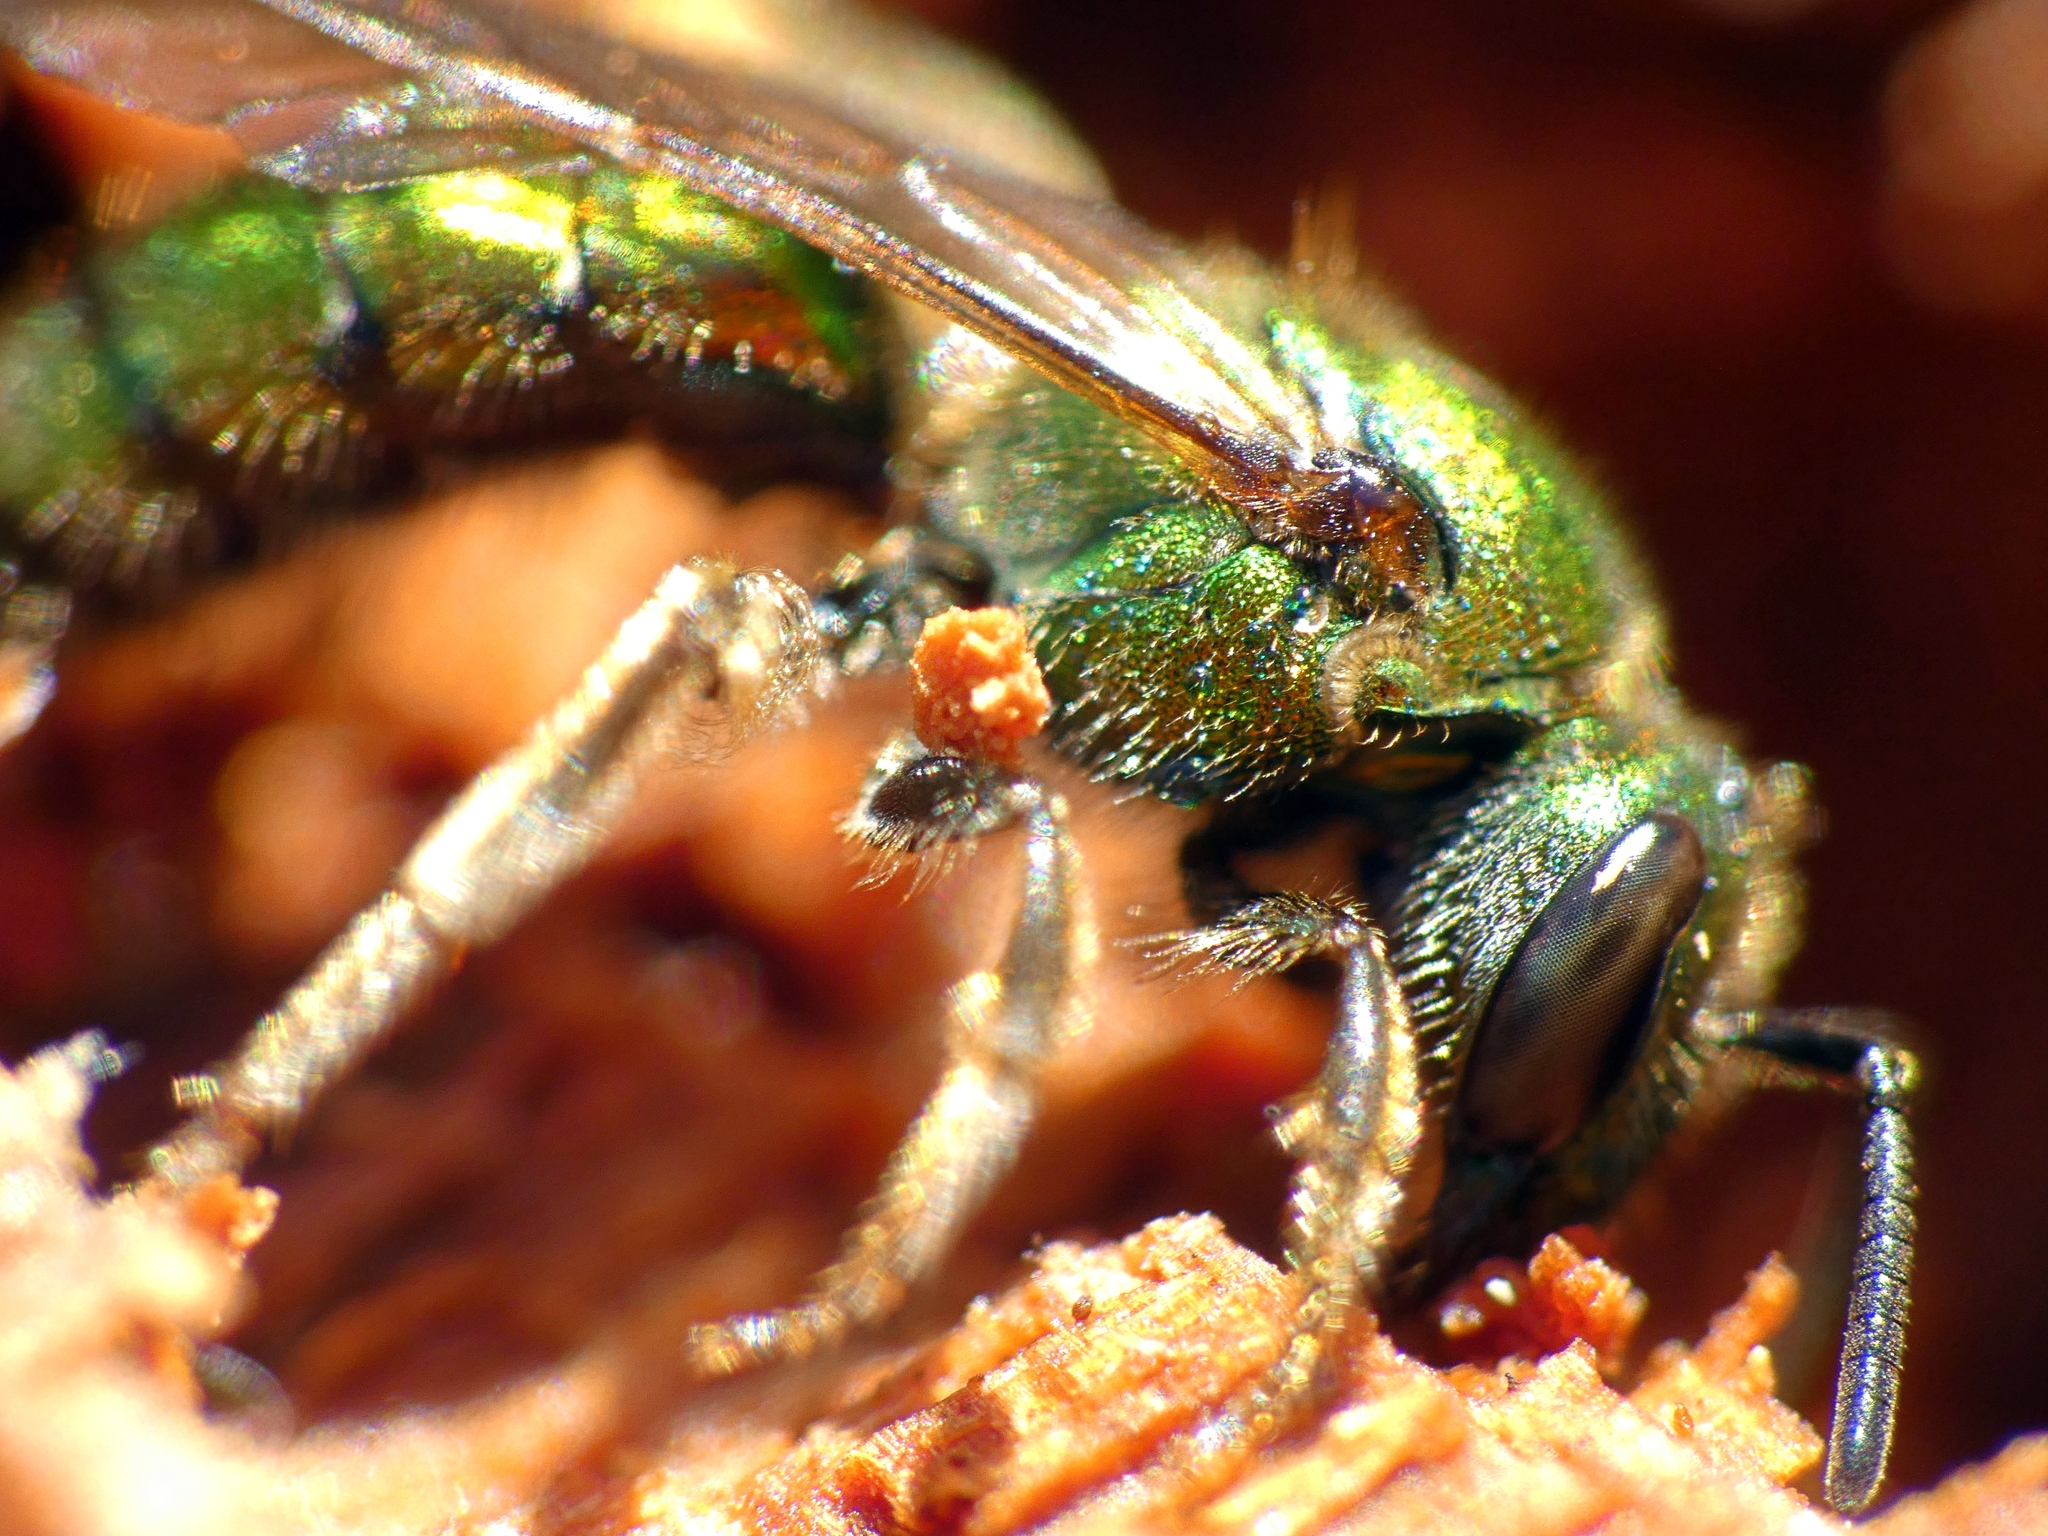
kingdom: Animalia
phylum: Arthropoda
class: Insecta
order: Hymenoptera
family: Halictidae
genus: Augochlora
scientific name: Augochlora pura
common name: Pure green sweat bee
